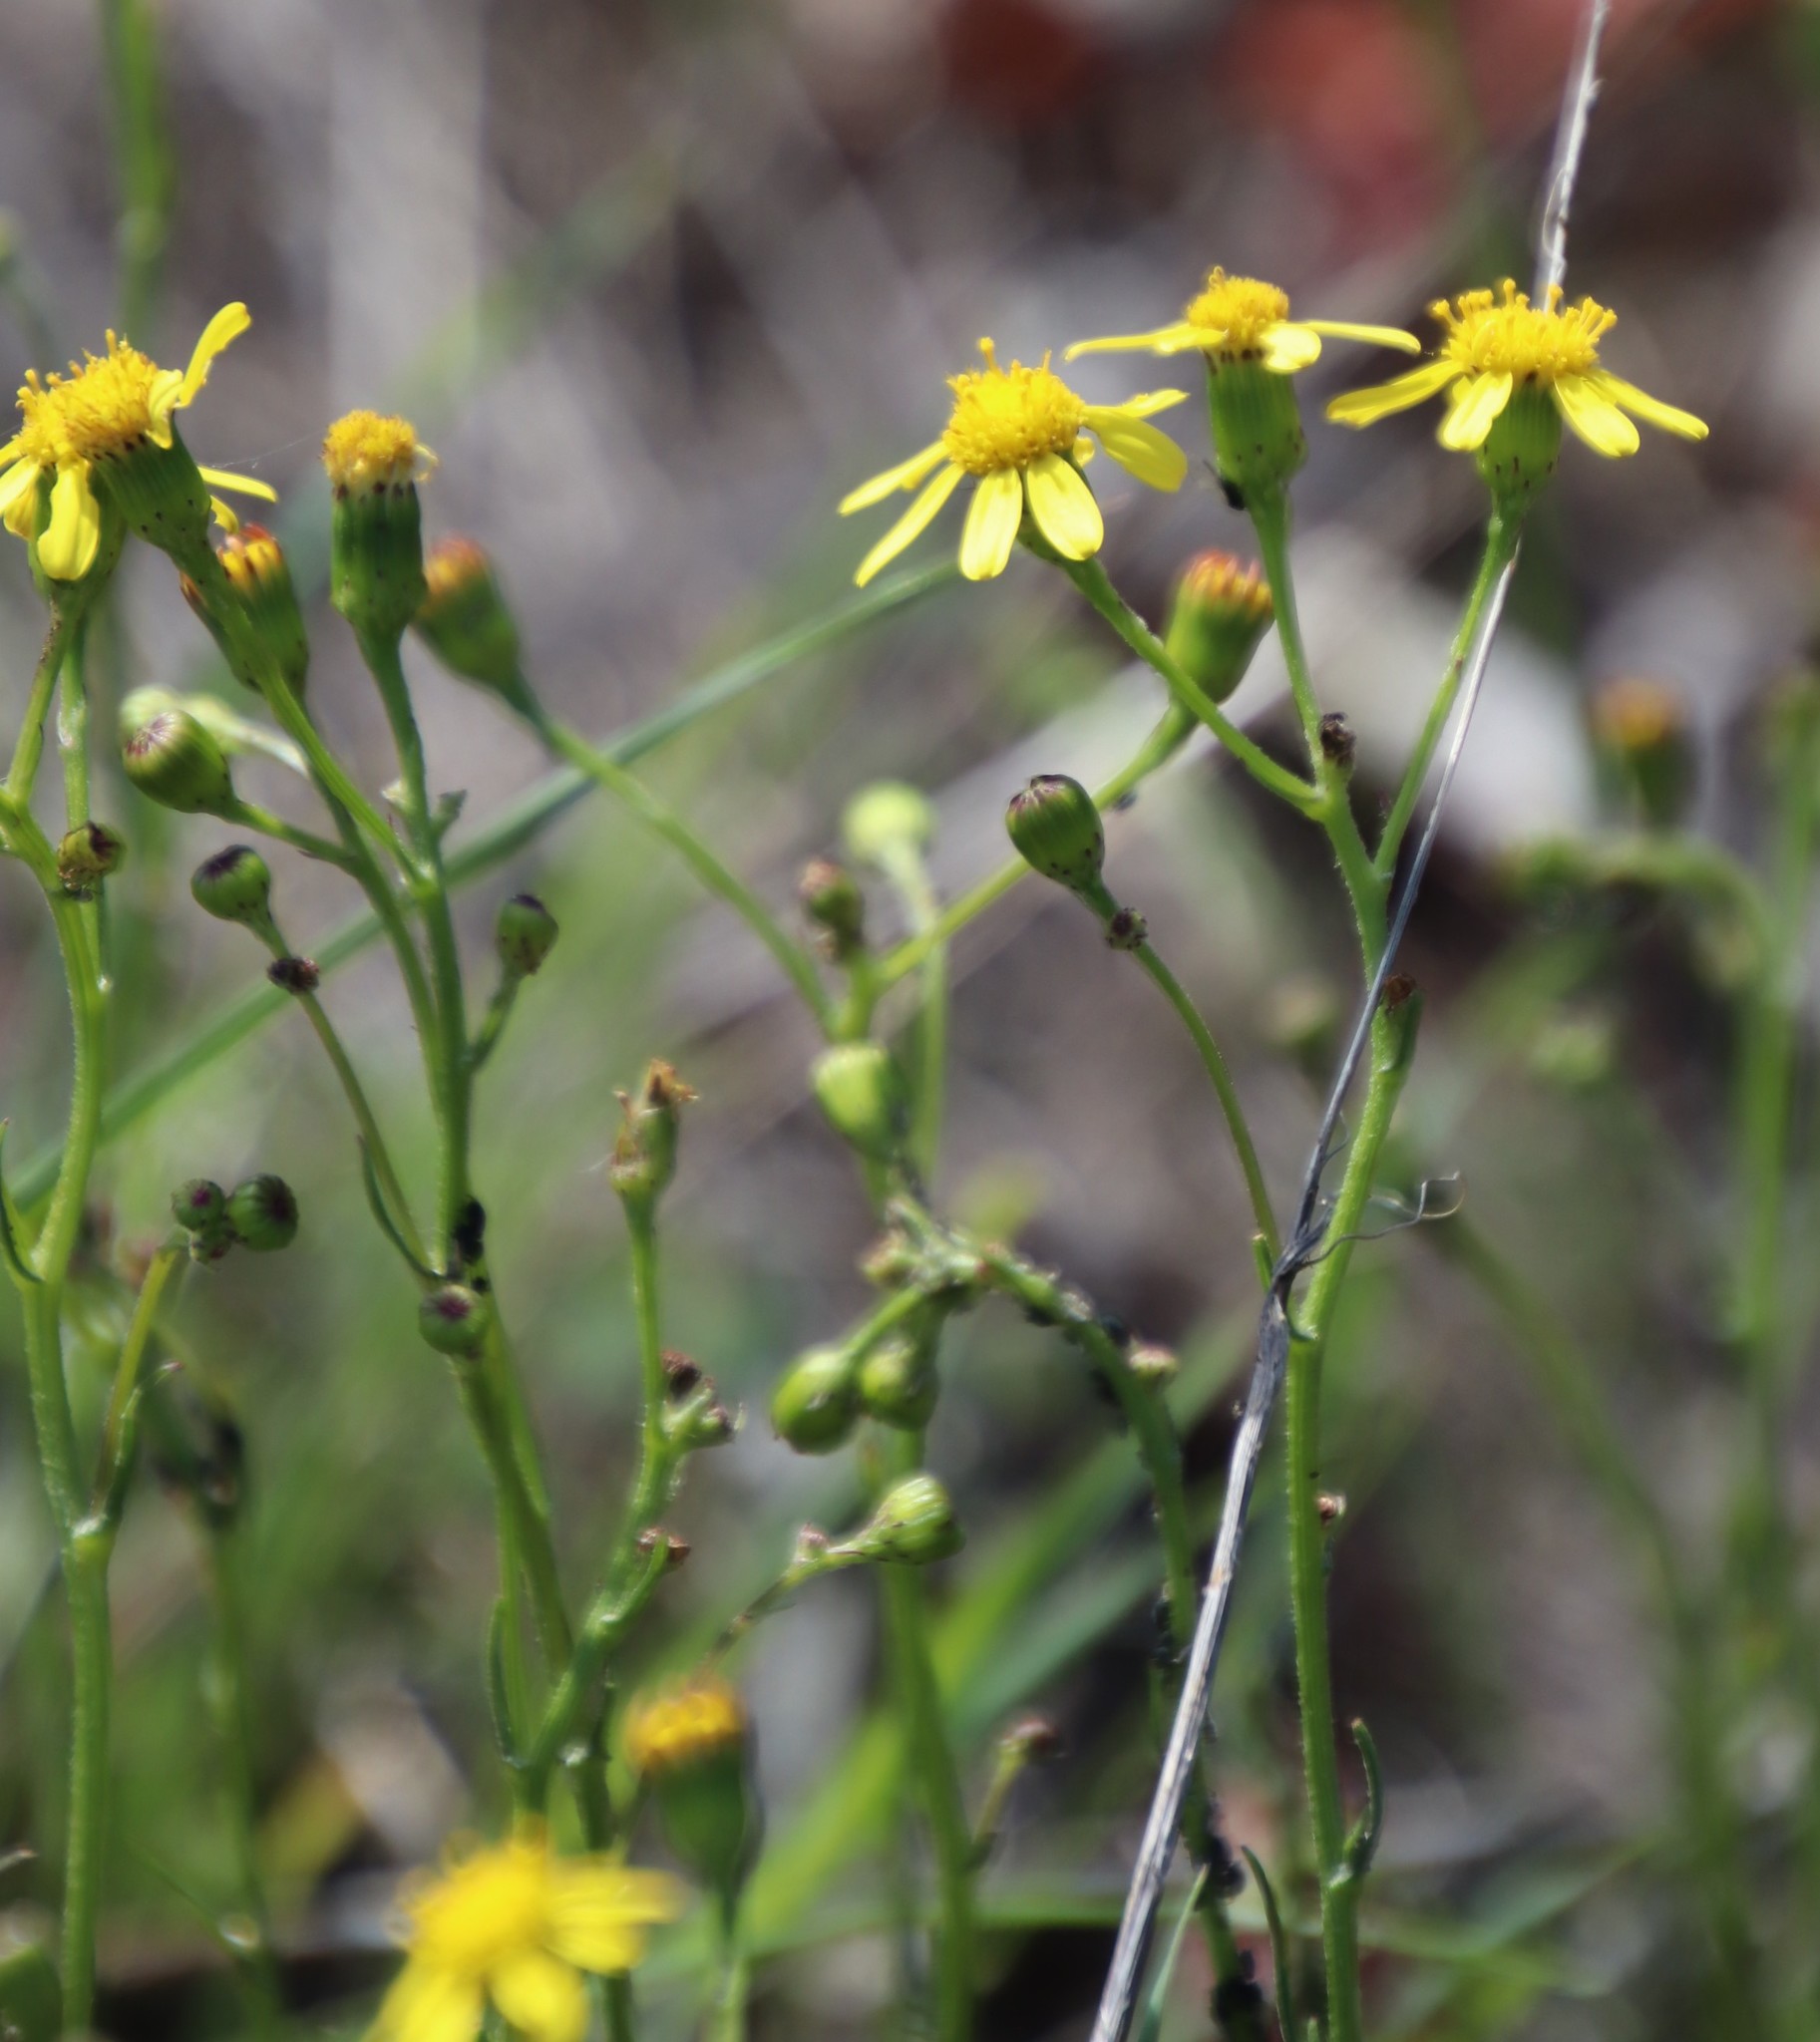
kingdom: Plantae
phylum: Tracheophyta
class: Magnoliopsida
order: Asterales
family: Asteraceae
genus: Senecio
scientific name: Senecio burchellii
